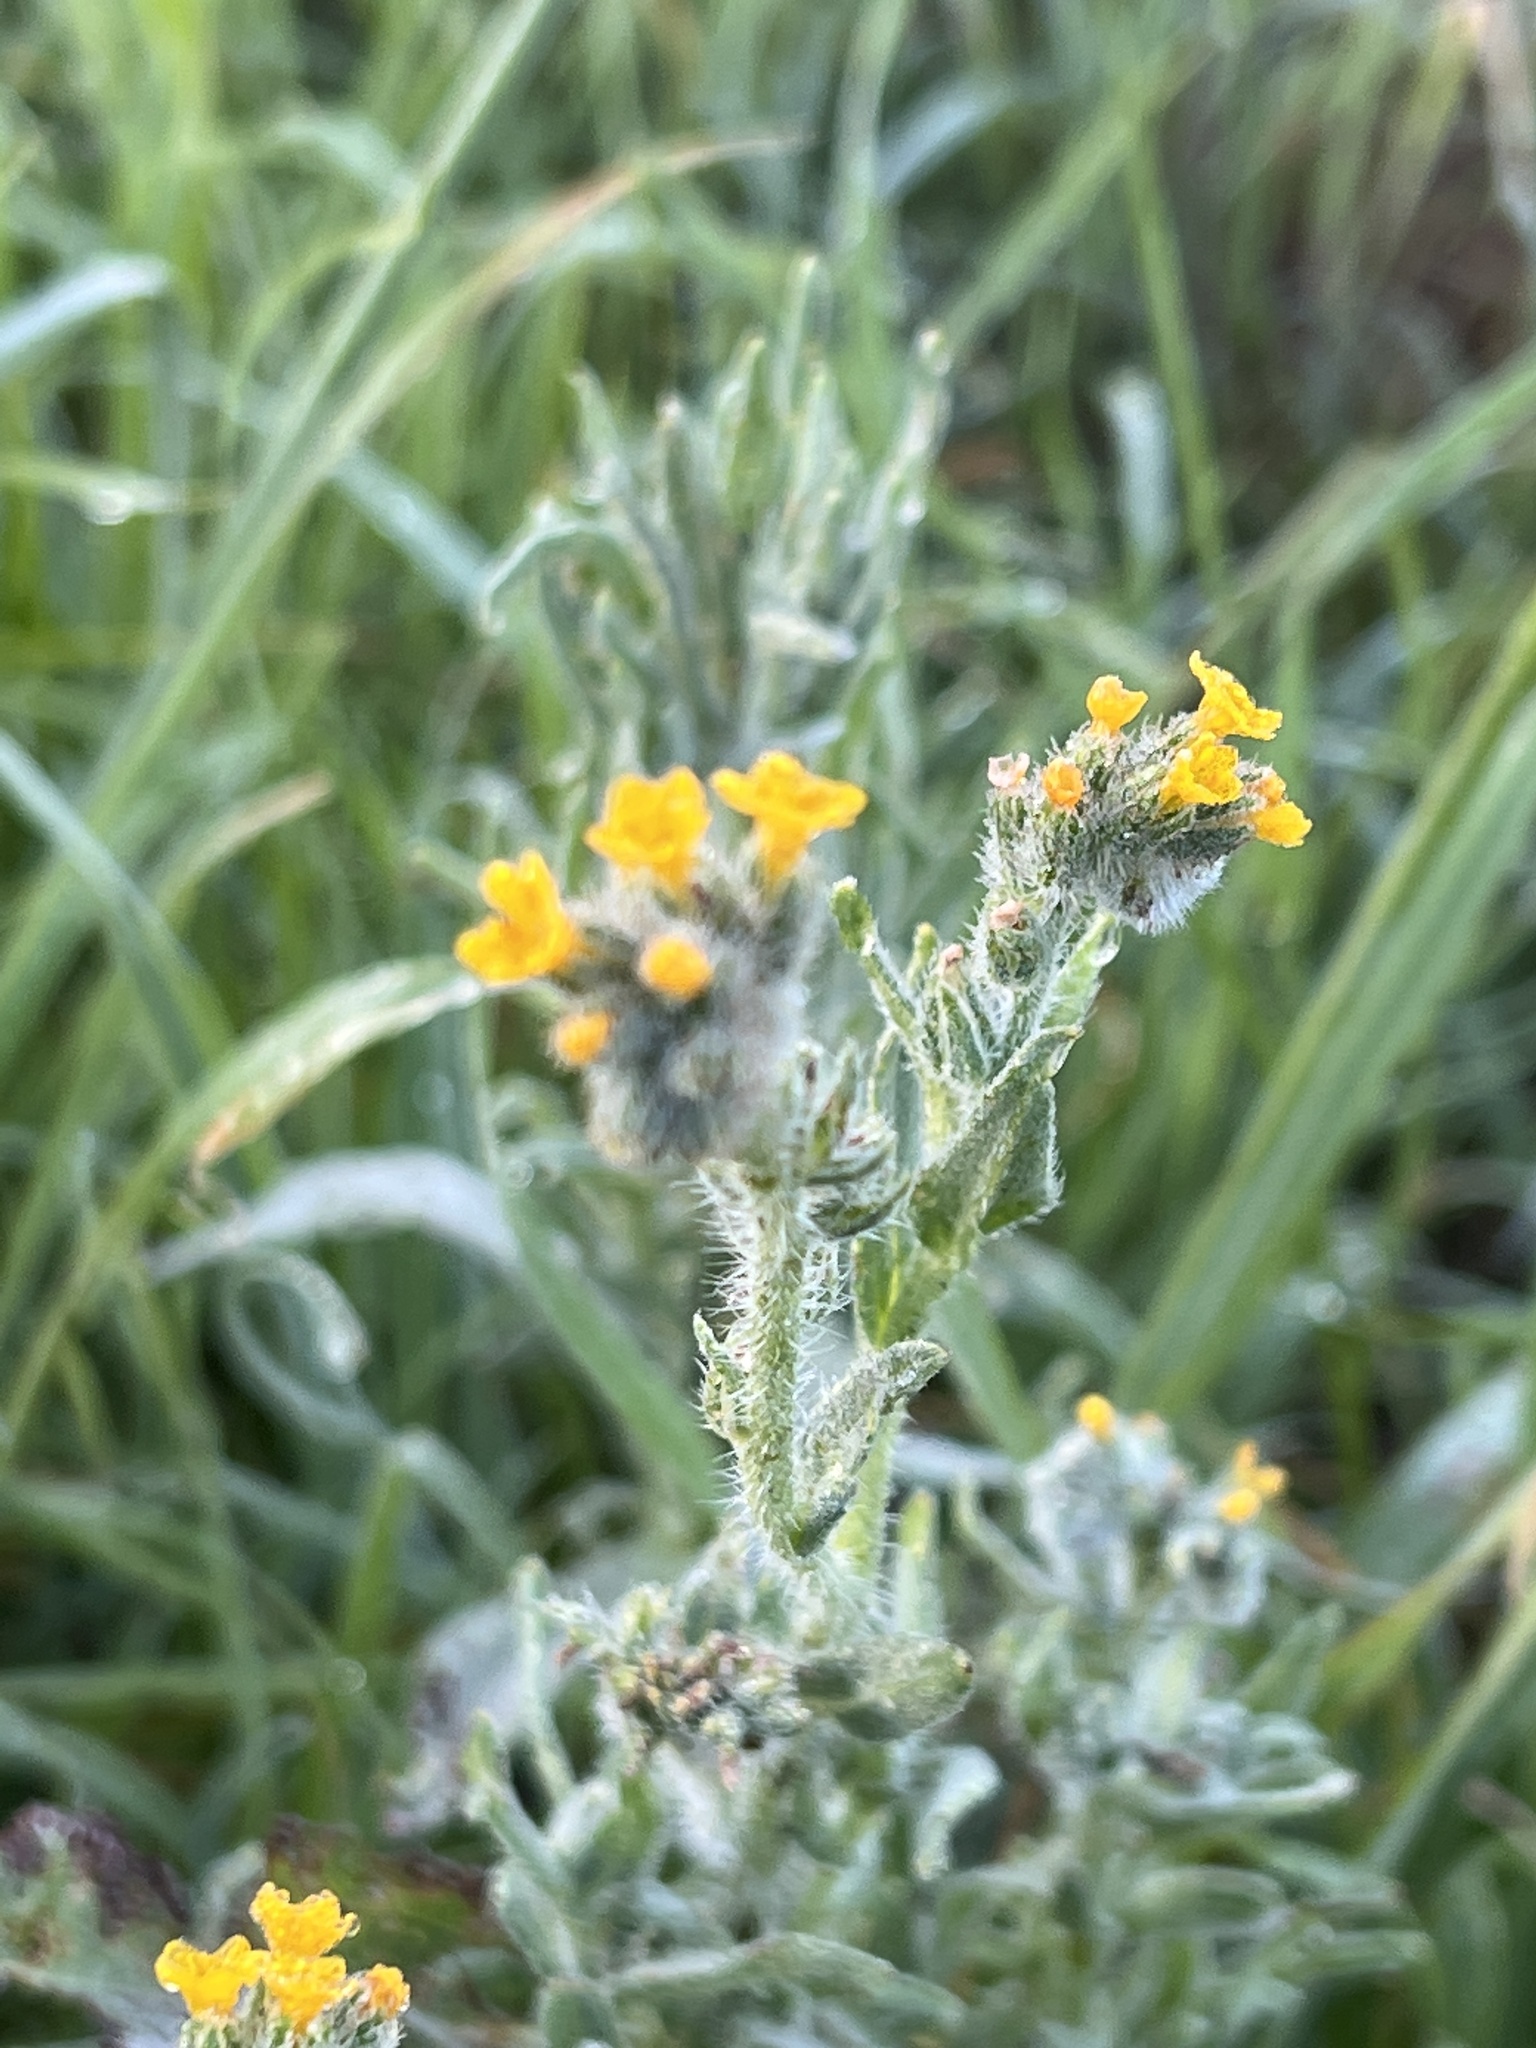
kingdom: Plantae
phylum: Tracheophyta
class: Magnoliopsida
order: Boraginales
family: Boraginaceae
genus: Amsinckia
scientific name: Amsinckia menziesii
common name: Menzies' fiddleneck
